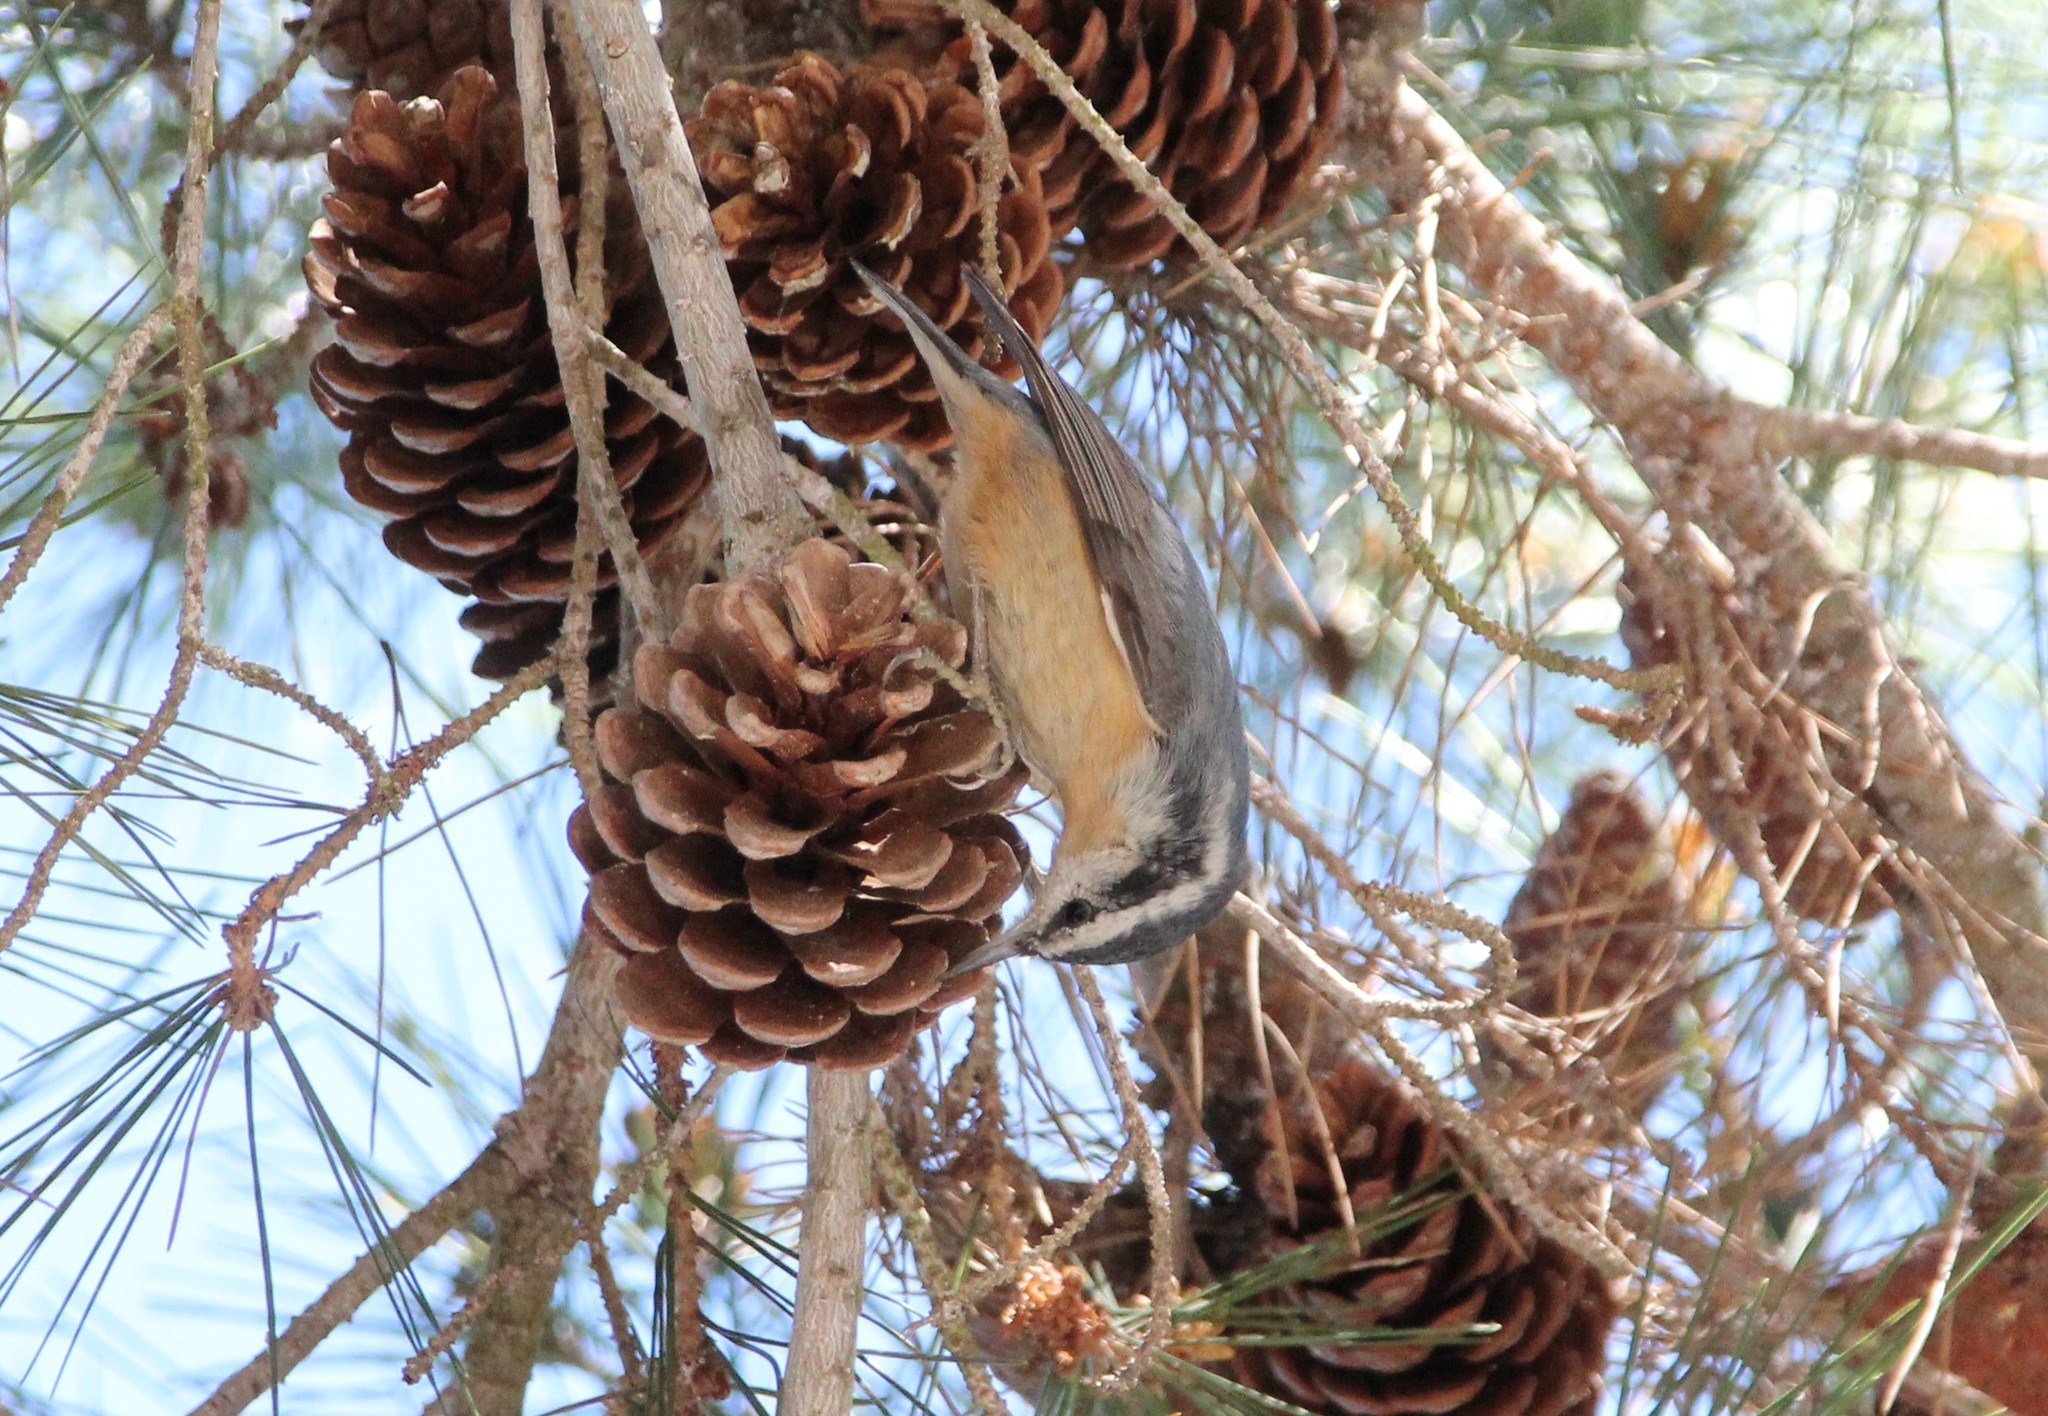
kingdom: Animalia
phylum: Chordata
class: Aves
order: Passeriformes
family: Sittidae
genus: Sitta
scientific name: Sitta canadensis
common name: Red-breasted nuthatch
